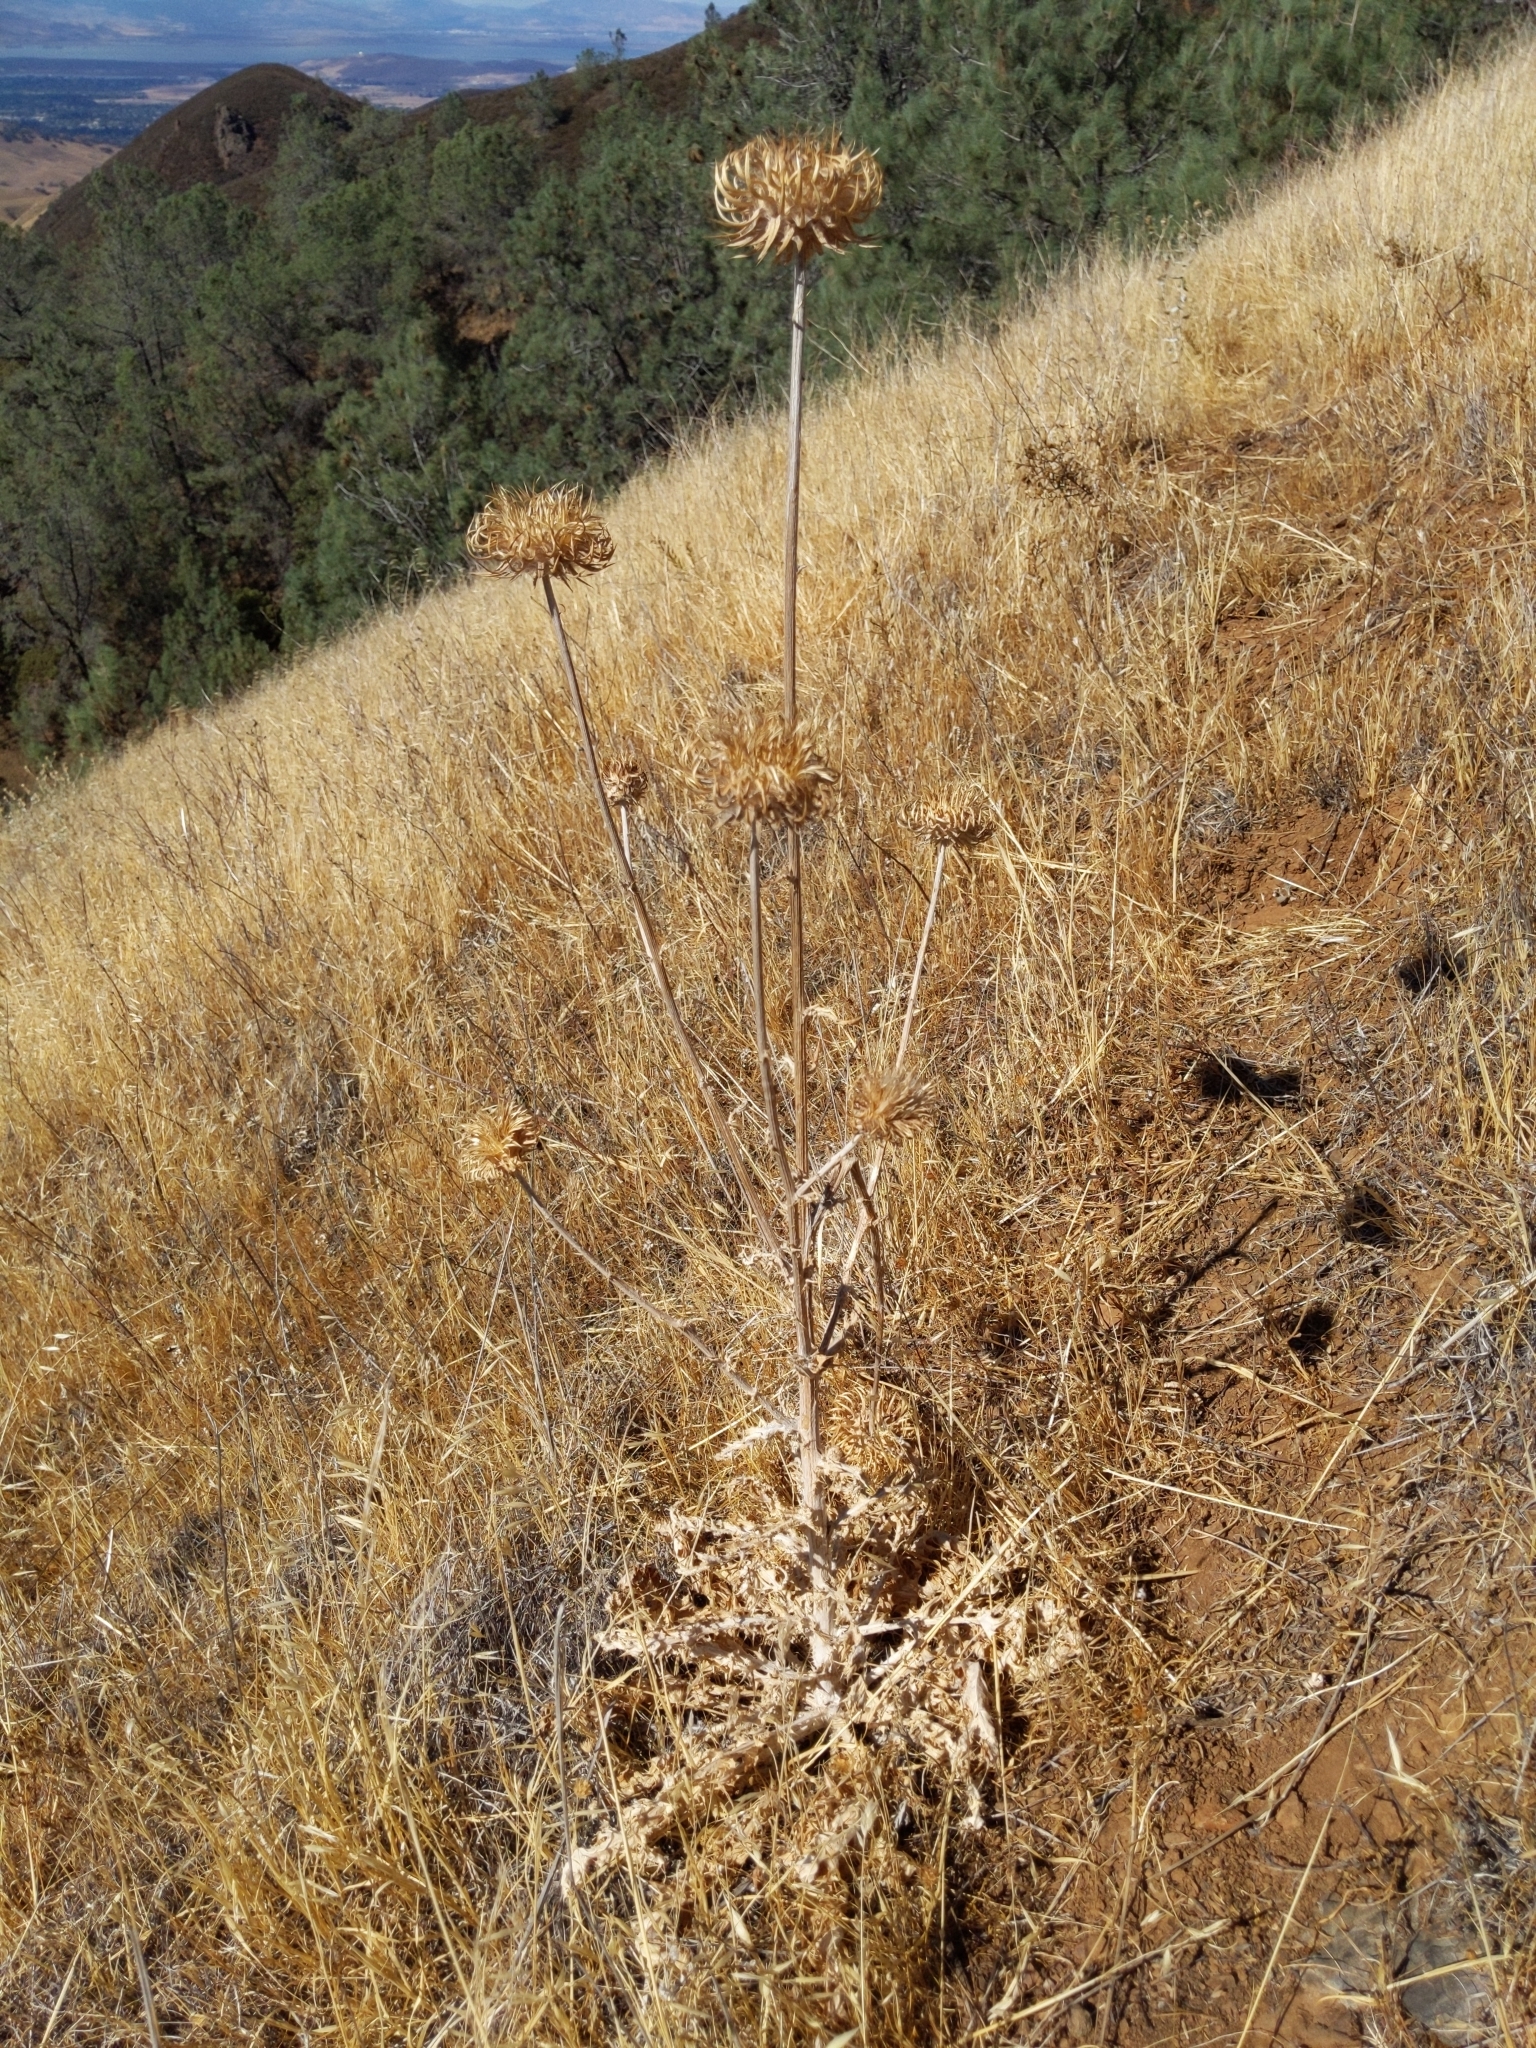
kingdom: Plantae
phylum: Tracheophyta
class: Magnoliopsida
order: Asterales
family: Asteraceae
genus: Cirsium
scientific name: Cirsium occidentale
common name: Western thistle
